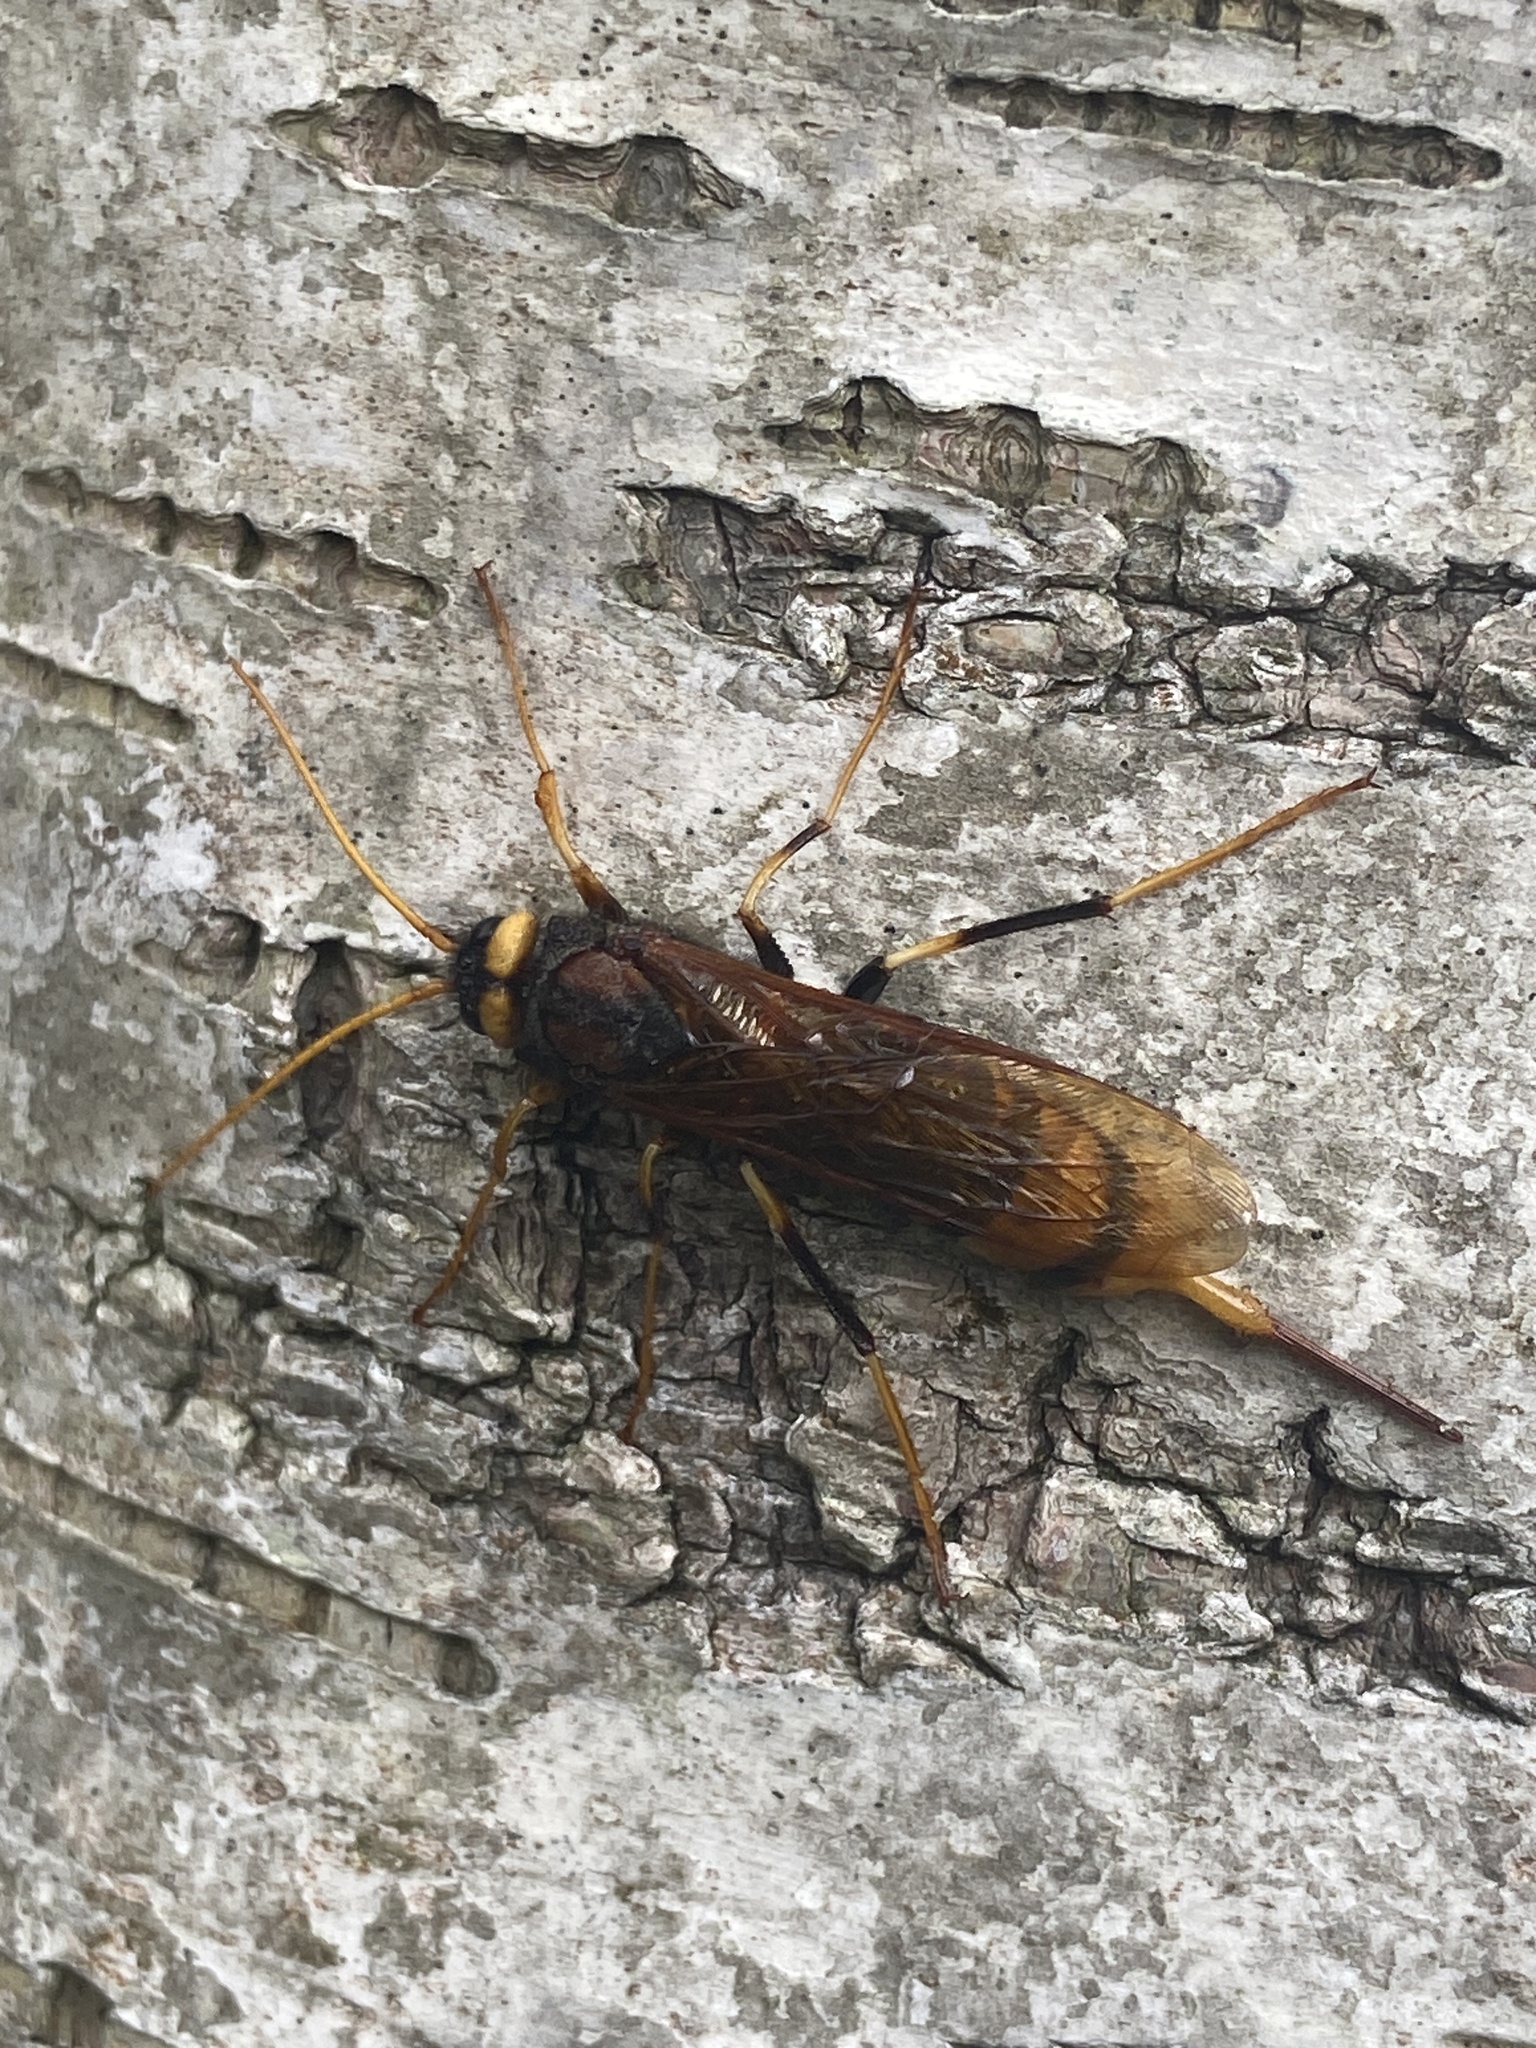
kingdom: Animalia
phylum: Arthropoda
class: Insecta
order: Hymenoptera
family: Siricidae
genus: Urocerus
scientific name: Urocerus augur
